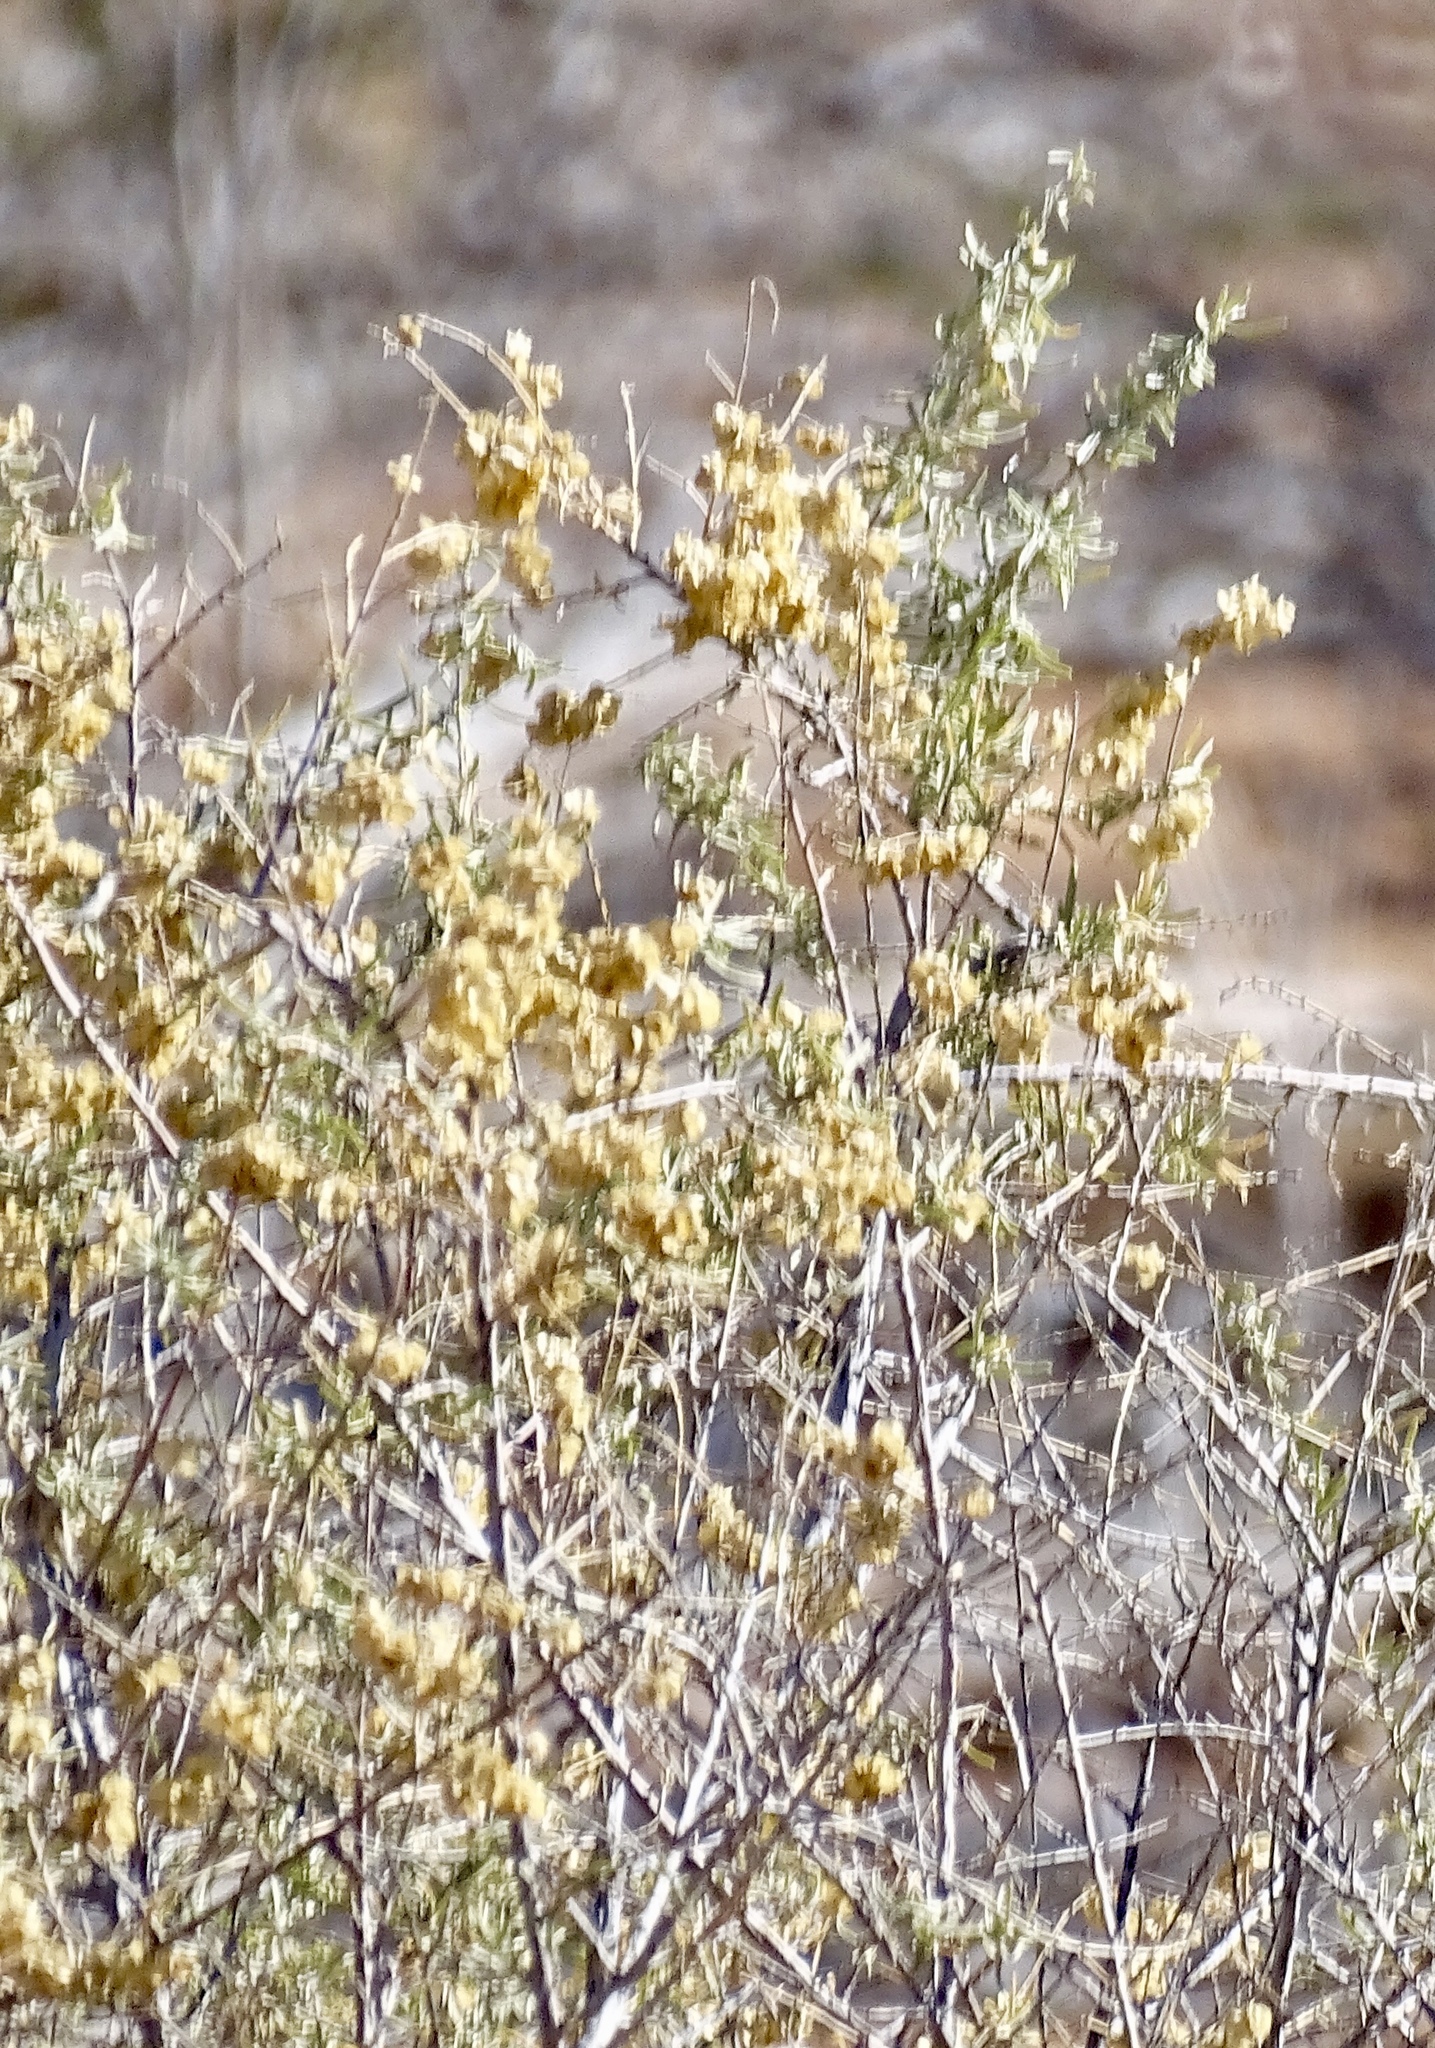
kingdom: Plantae
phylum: Tracheophyta
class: Magnoliopsida
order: Caryophyllales
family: Amaranthaceae
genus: Atriplex
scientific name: Atriplex canescens
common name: Four-wing saltbush
